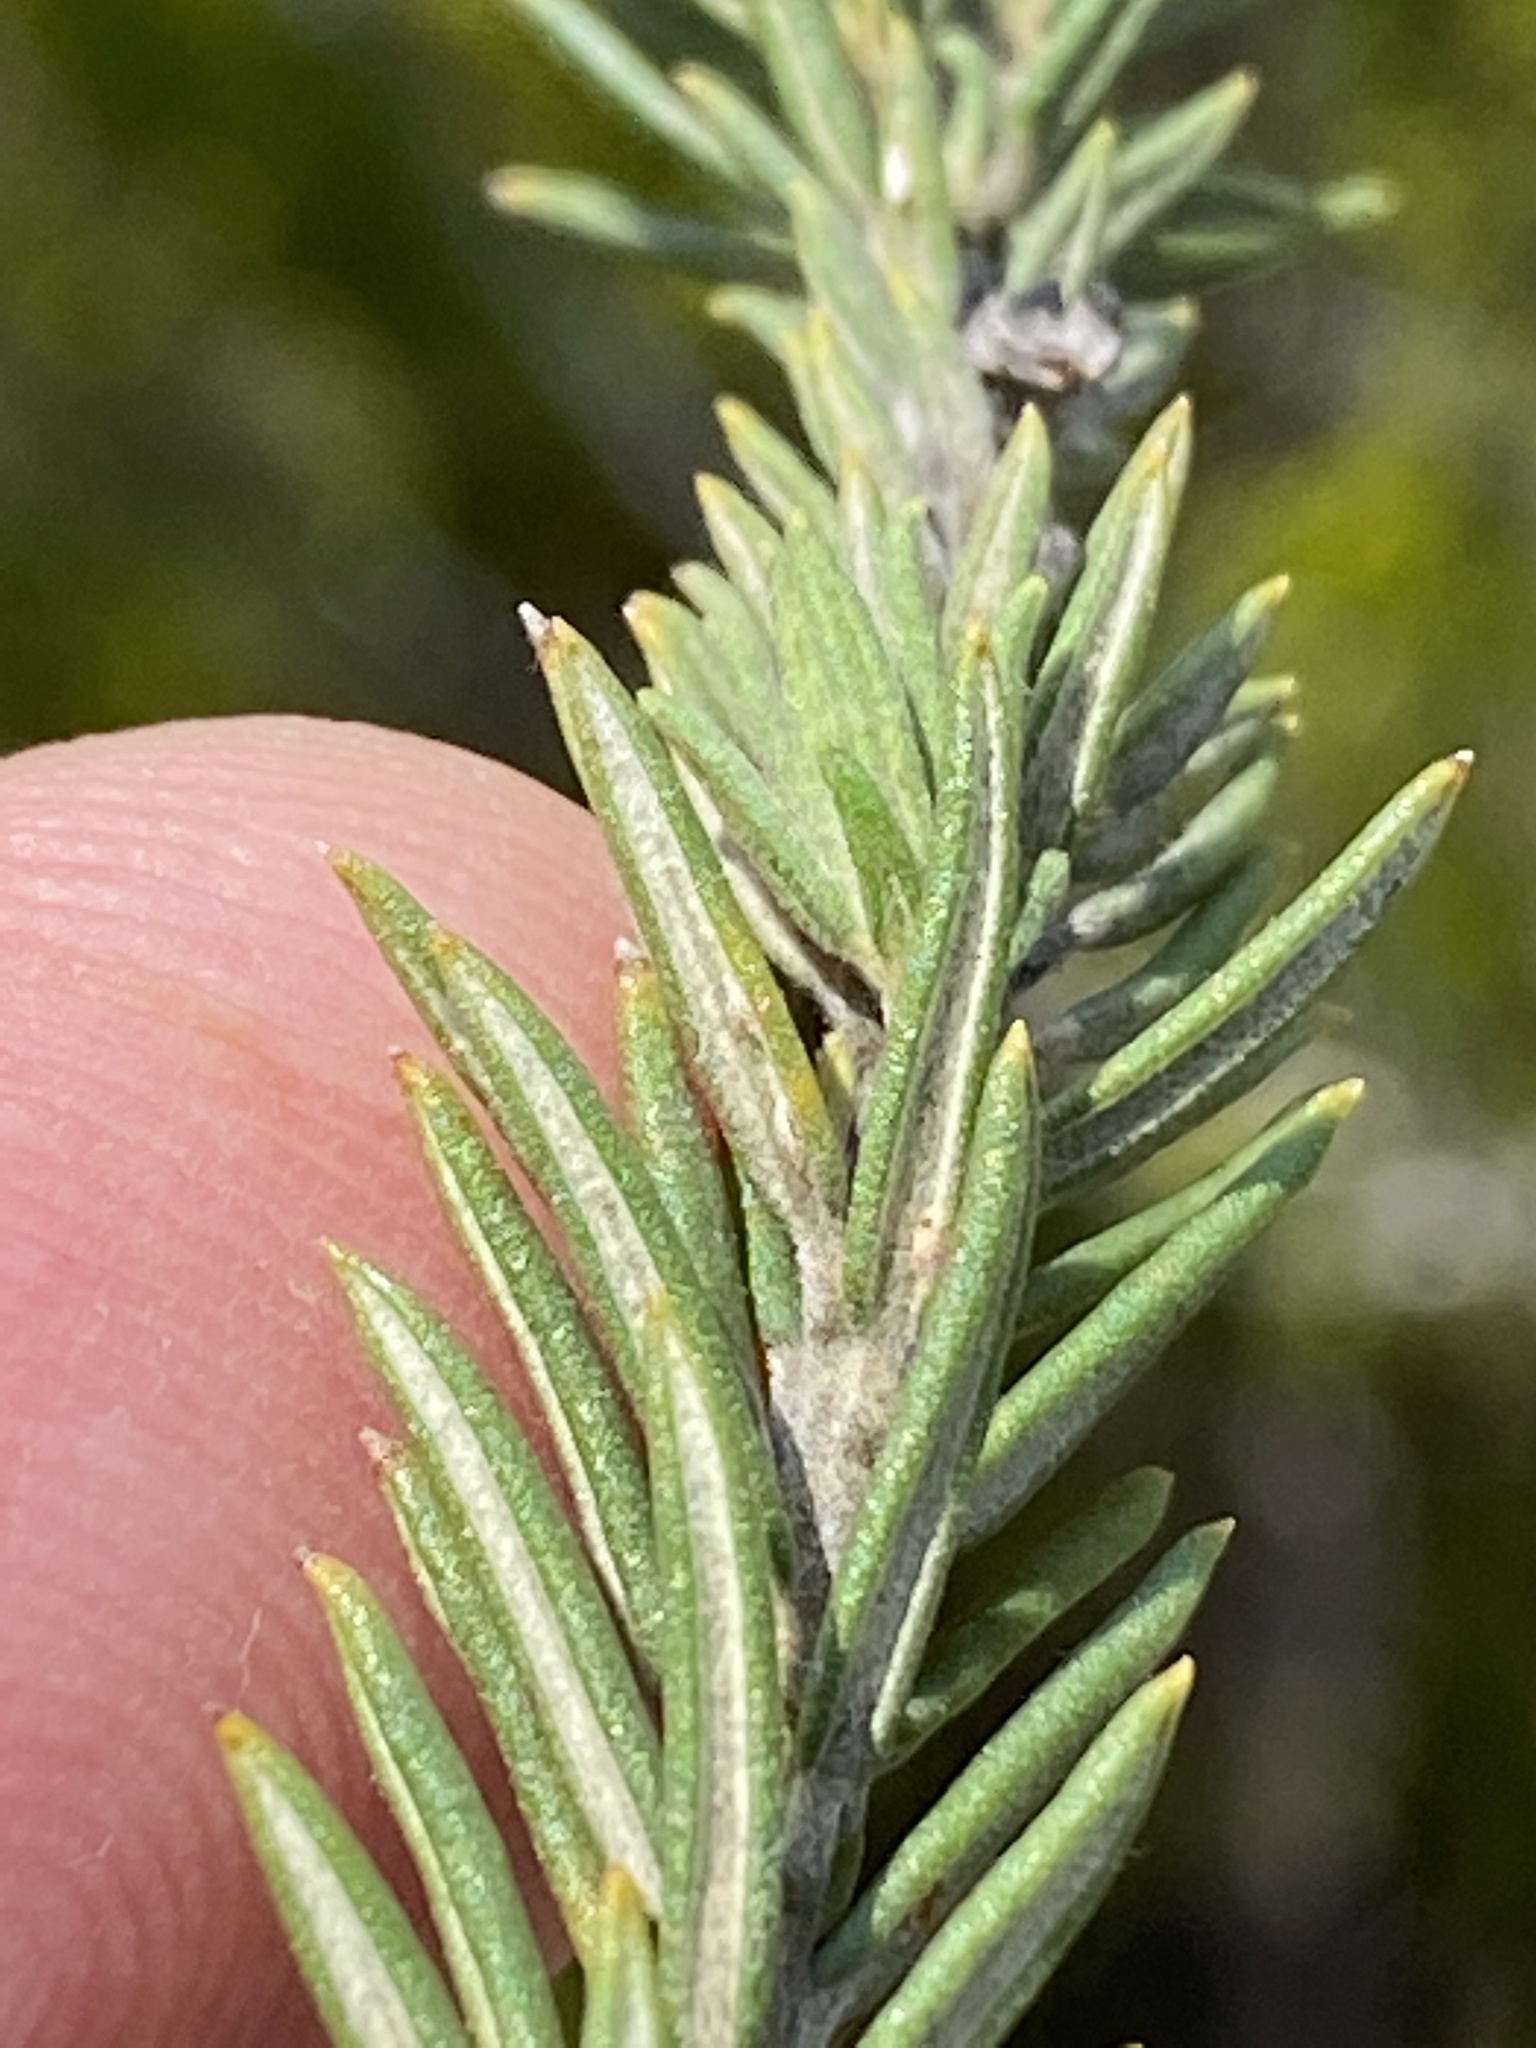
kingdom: Plantae
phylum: Tracheophyta
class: Magnoliopsida
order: Rosales
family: Rhamnaceae
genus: Phylica
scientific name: Phylica axillaris
